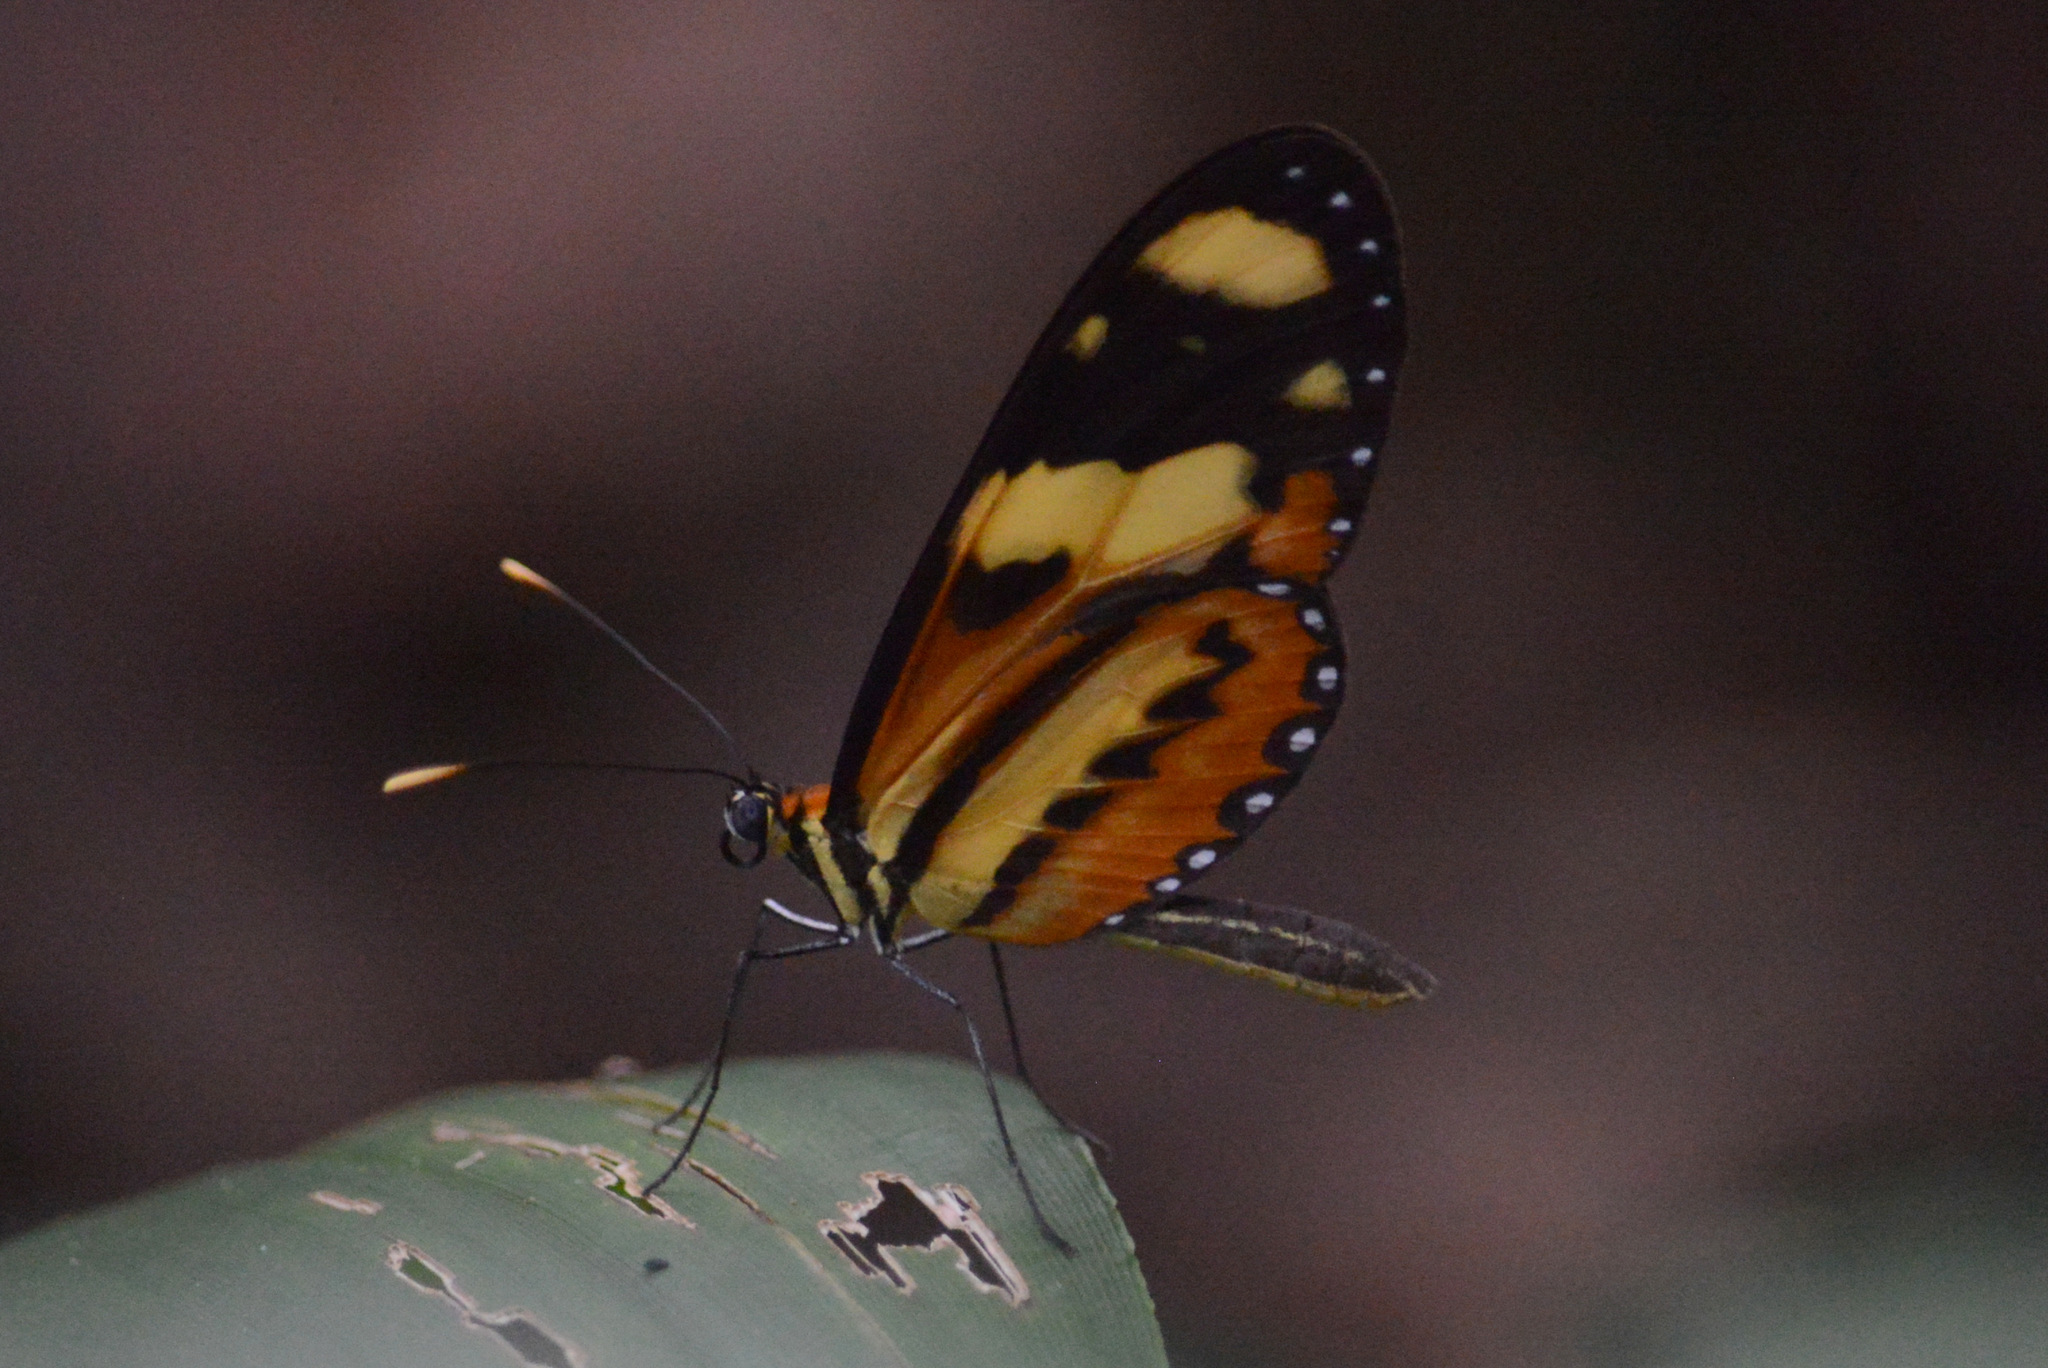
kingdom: Animalia
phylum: Arthropoda
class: Insecta
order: Lepidoptera
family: Nymphalidae
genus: Mechanitis
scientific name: Mechanitis lysimnia
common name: Lysimnia tigerwing
